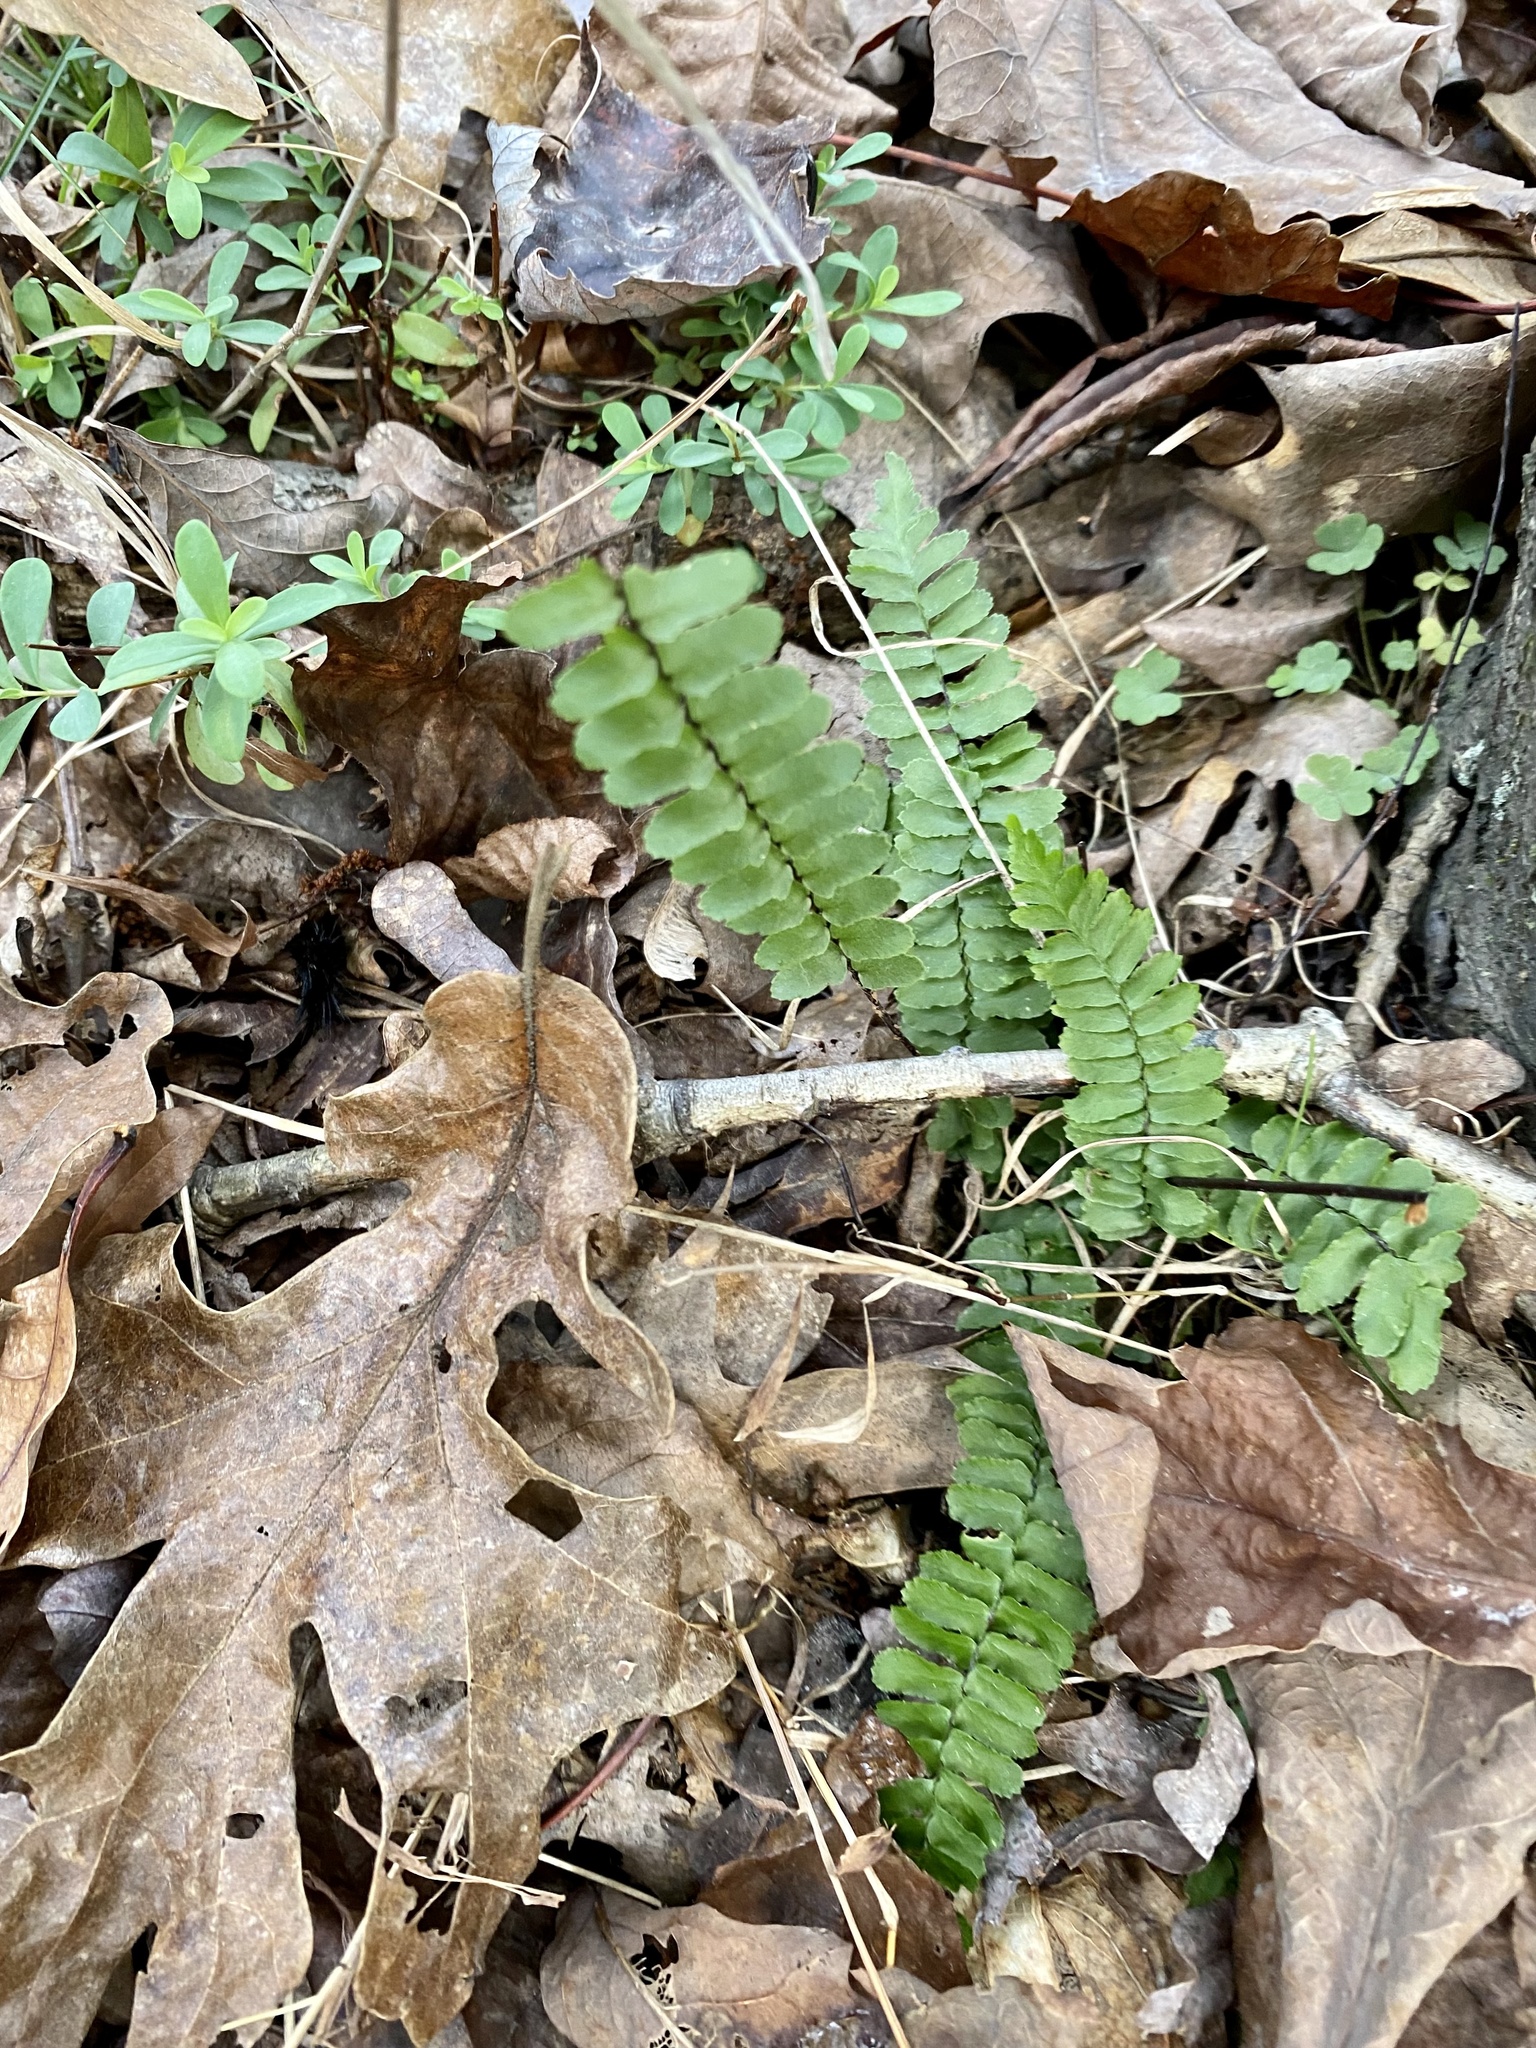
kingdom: Plantae
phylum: Tracheophyta
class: Polypodiopsida
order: Polypodiales
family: Aspleniaceae
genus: Asplenium
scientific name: Asplenium platyneuron
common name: Ebony spleenwort
